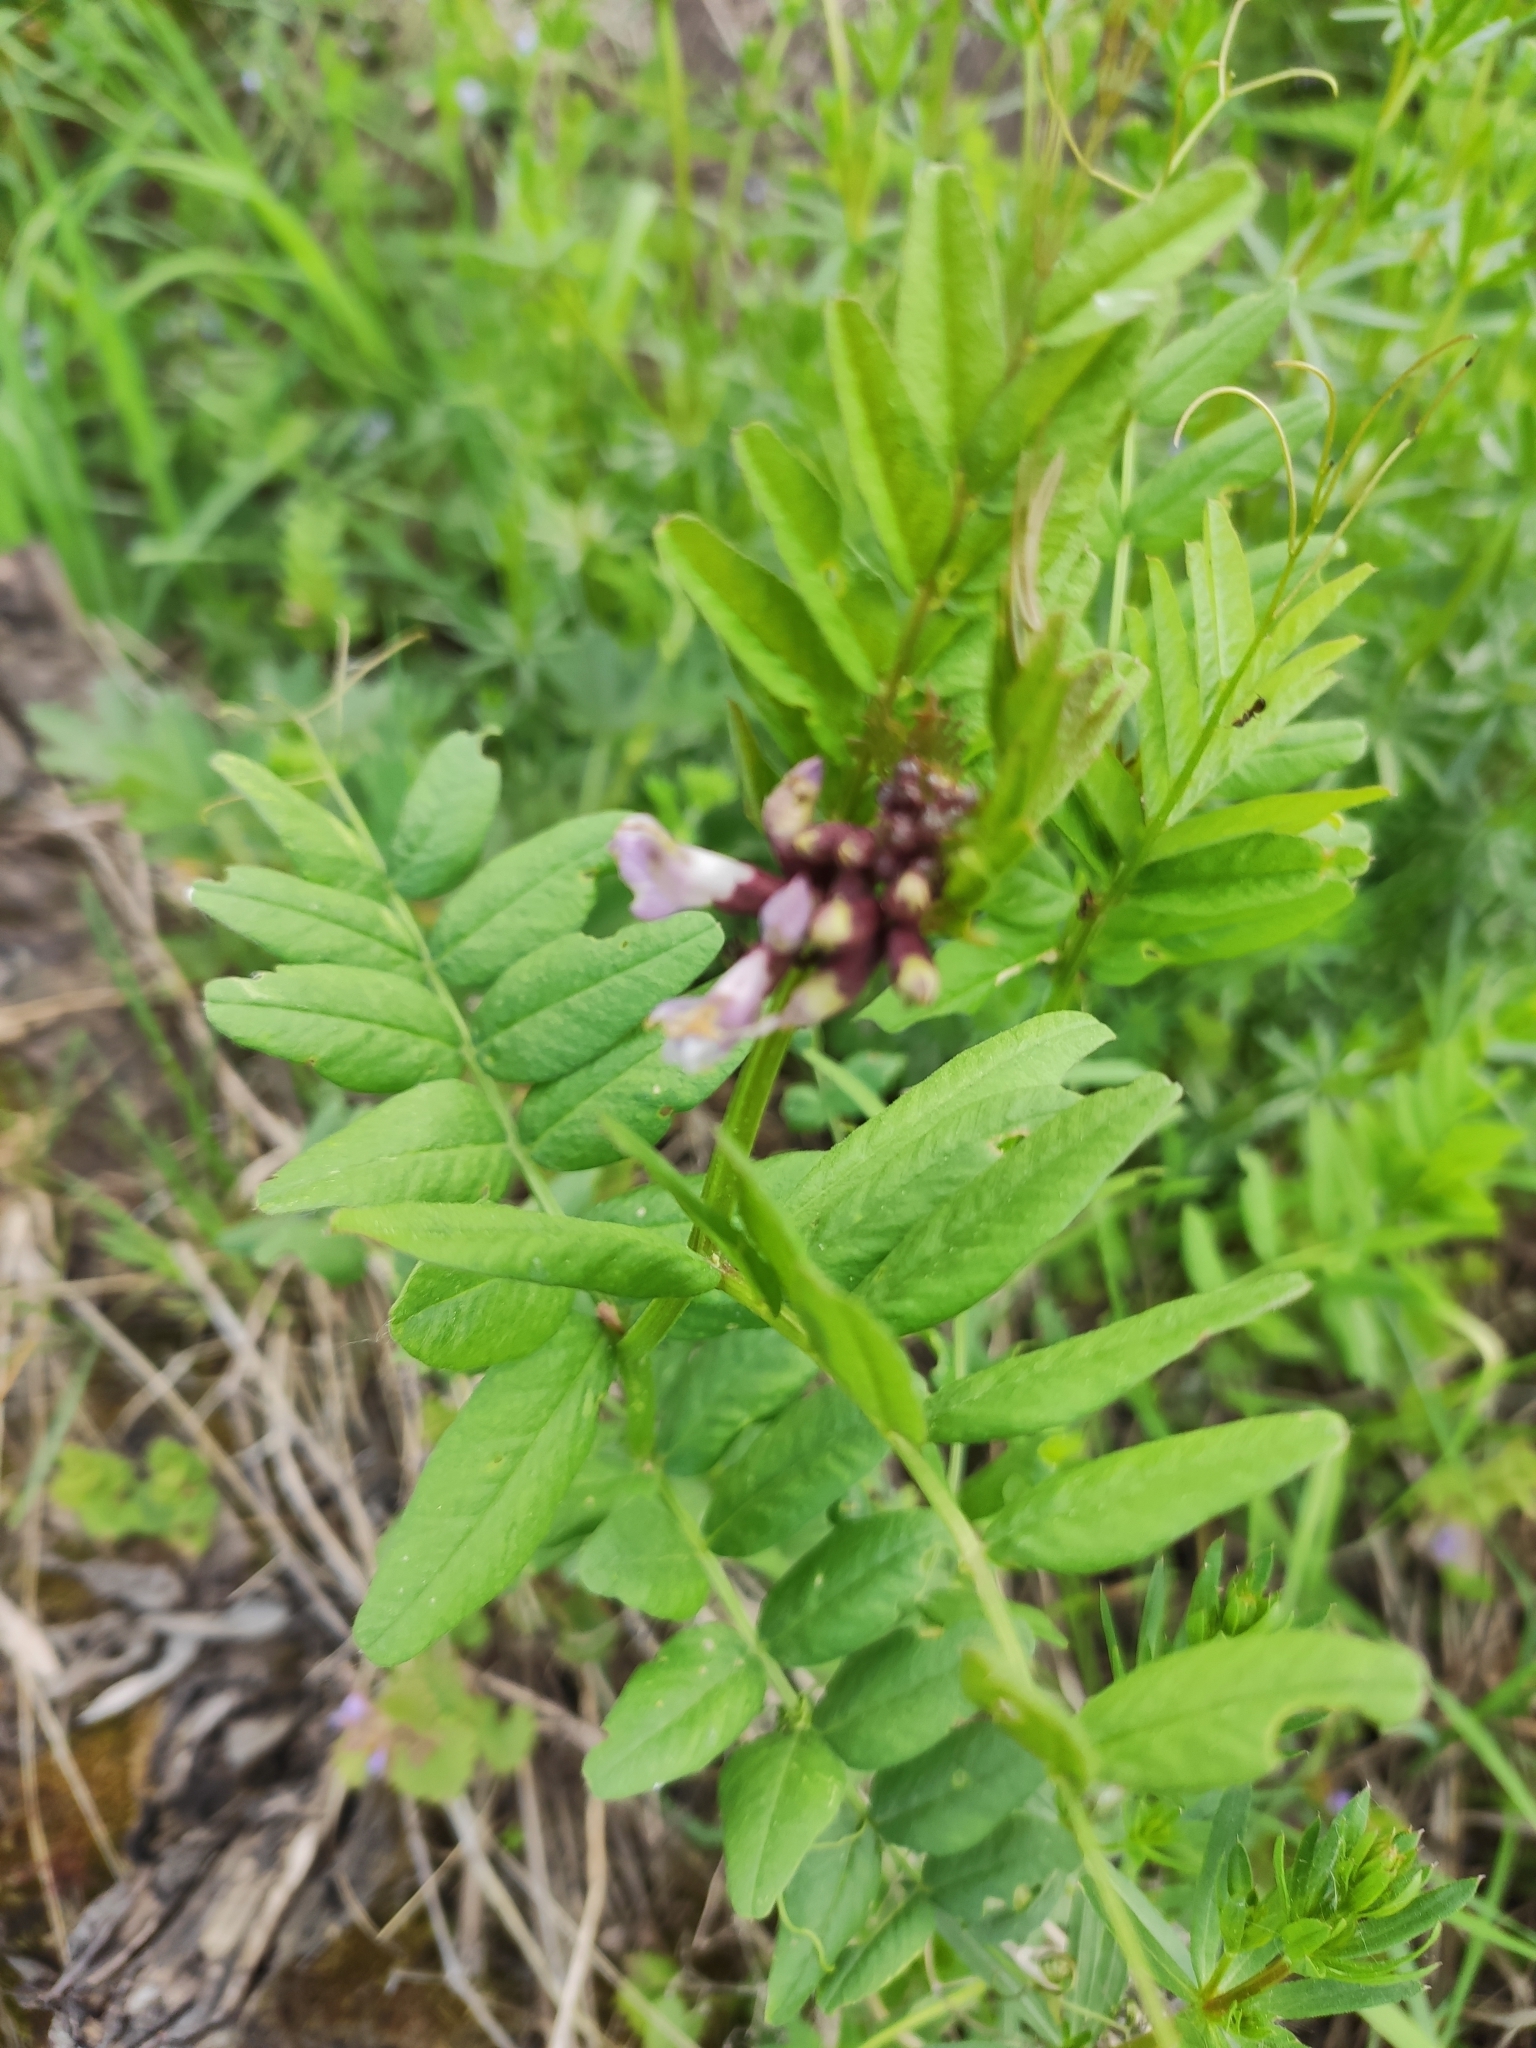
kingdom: Plantae
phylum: Tracheophyta
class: Magnoliopsida
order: Fabales
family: Fabaceae
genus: Vicia
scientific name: Vicia sepium
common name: Bush vetch
